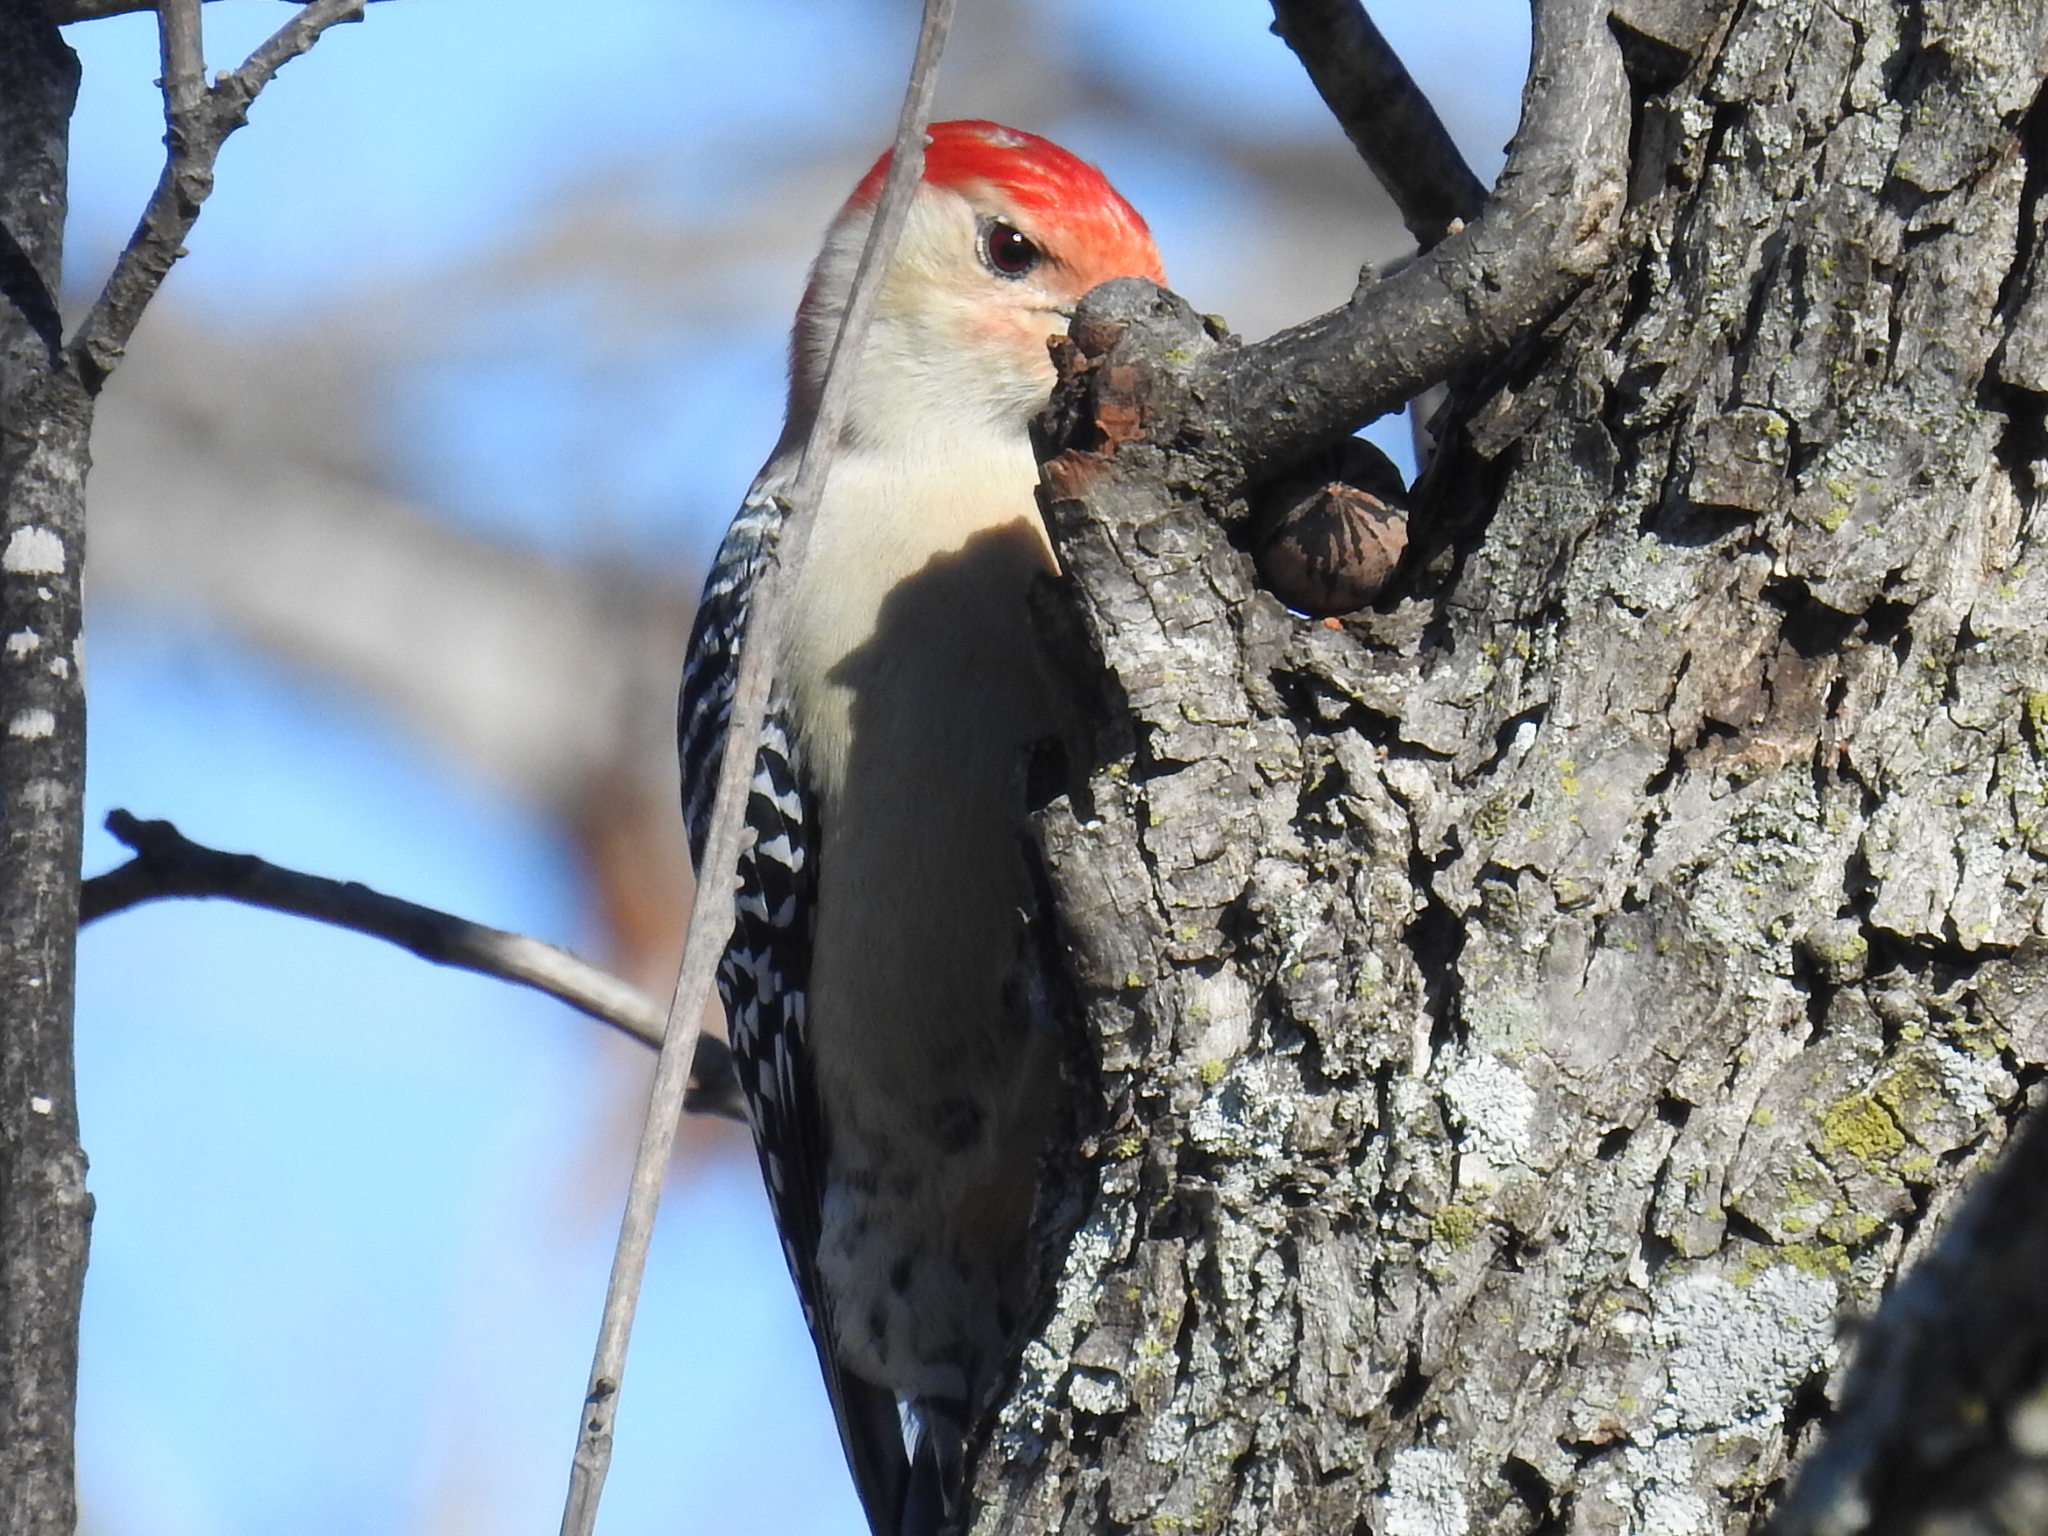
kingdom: Animalia
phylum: Chordata
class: Aves
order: Piciformes
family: Picidae
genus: Melanerpes
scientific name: Melanerpes carolinus
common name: Red-bellied woodpecker
